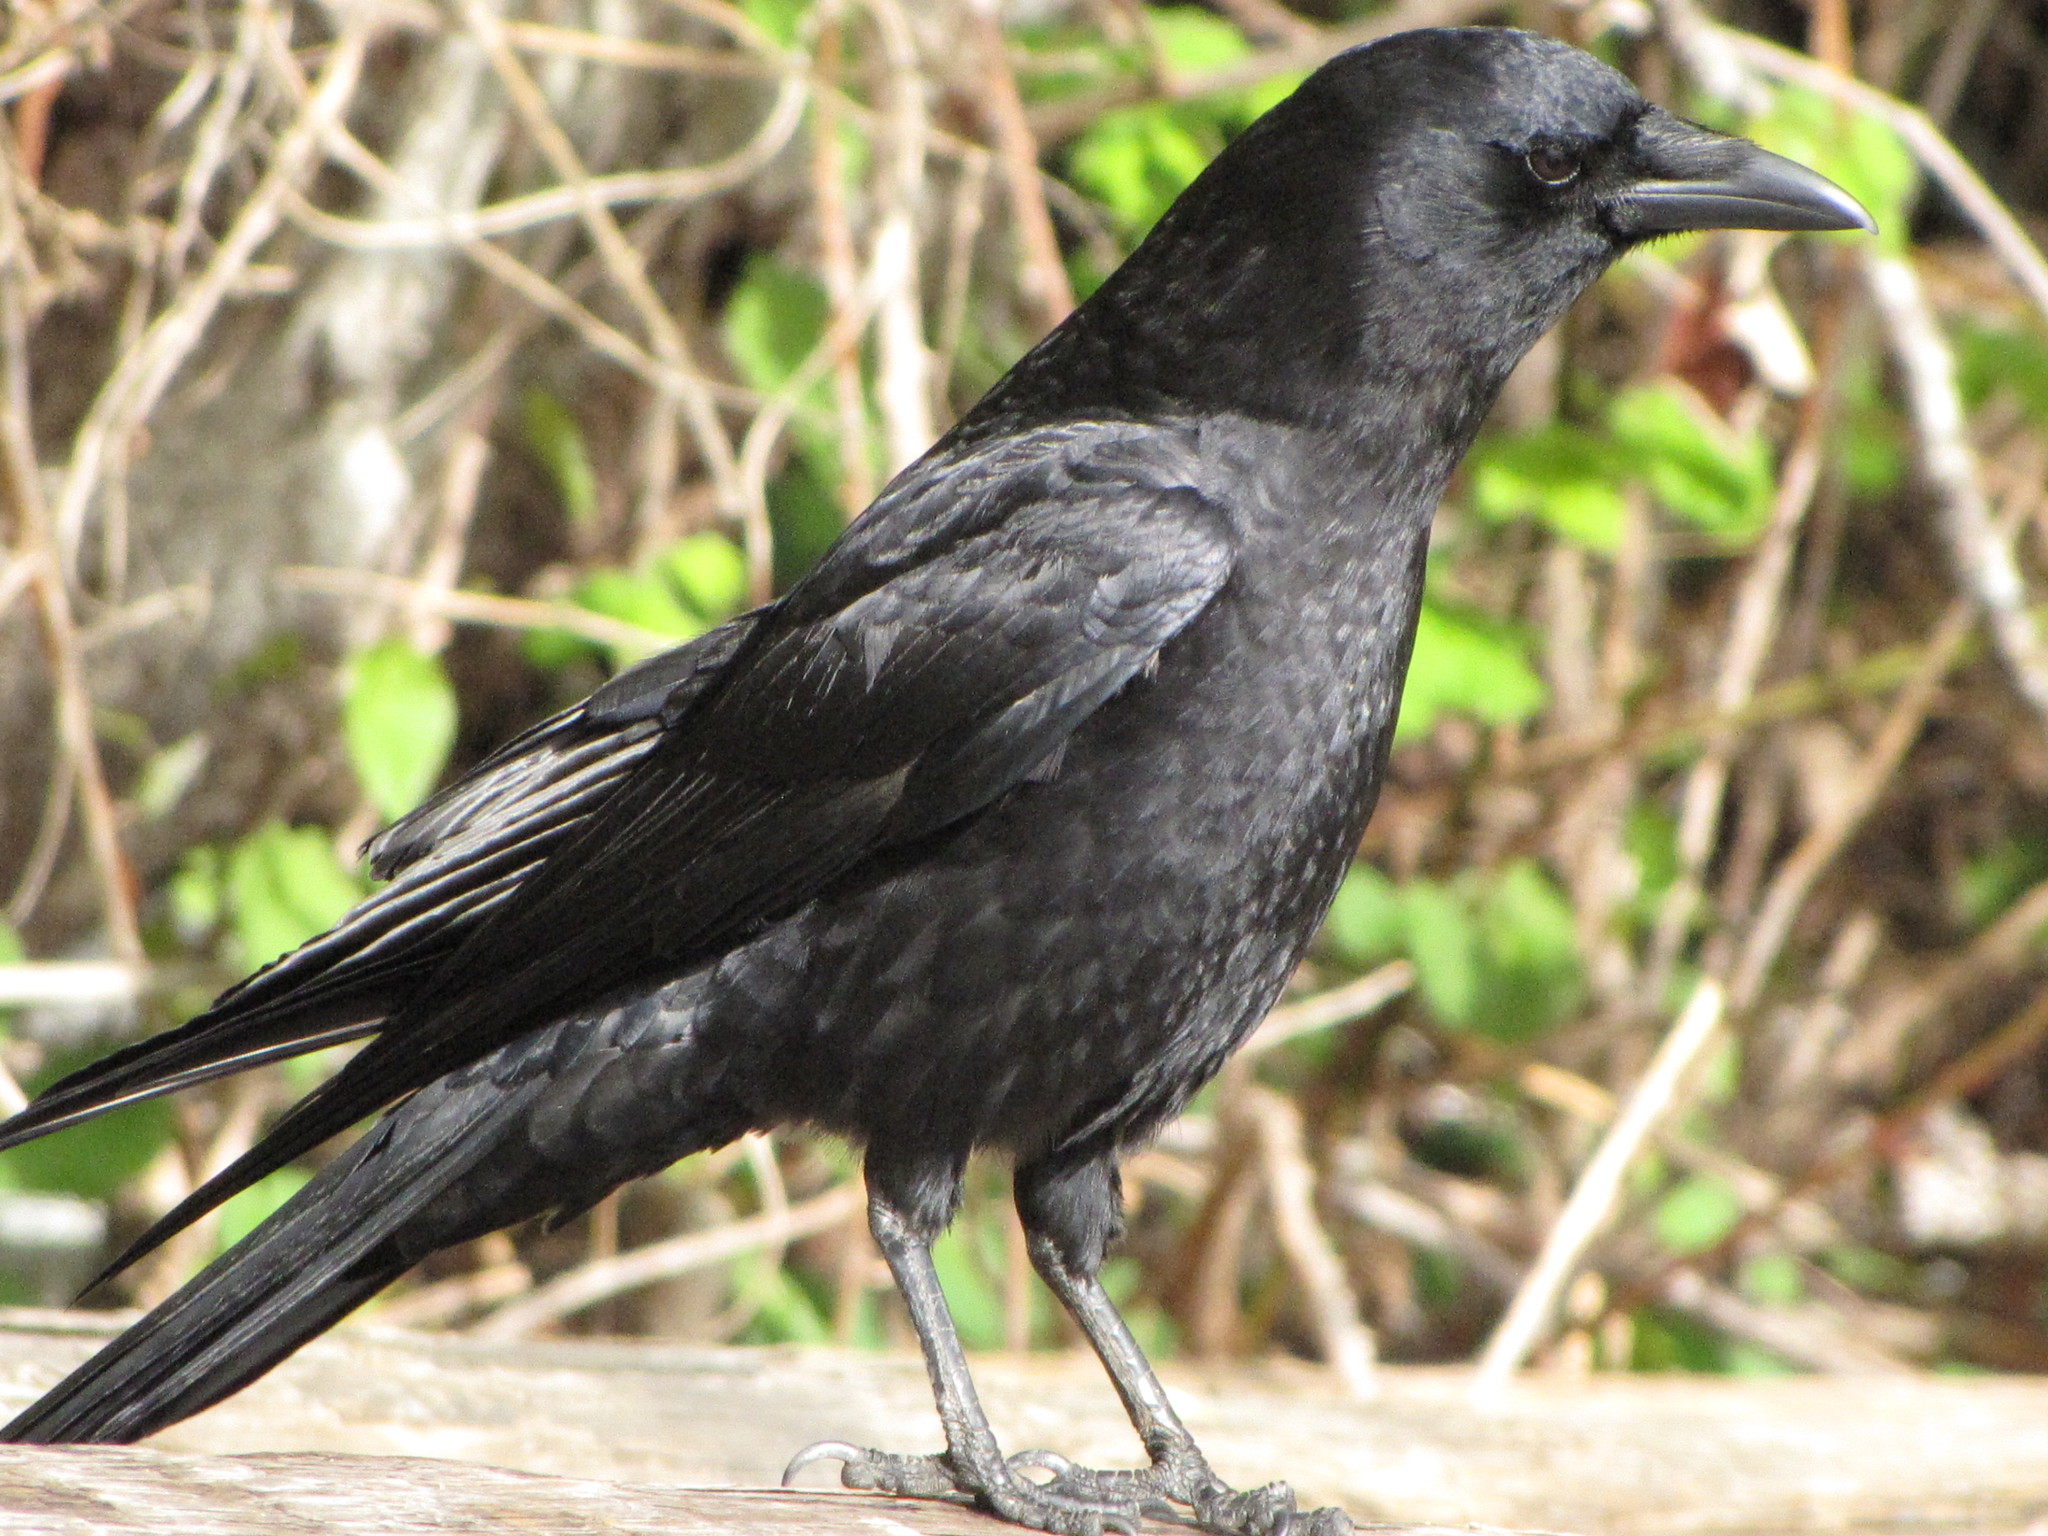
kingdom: Animalia
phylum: Chordata
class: Aves
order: Passeriformes
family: Corvidae
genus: Corvus
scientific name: Corvus brachyrhynchos
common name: American crow
